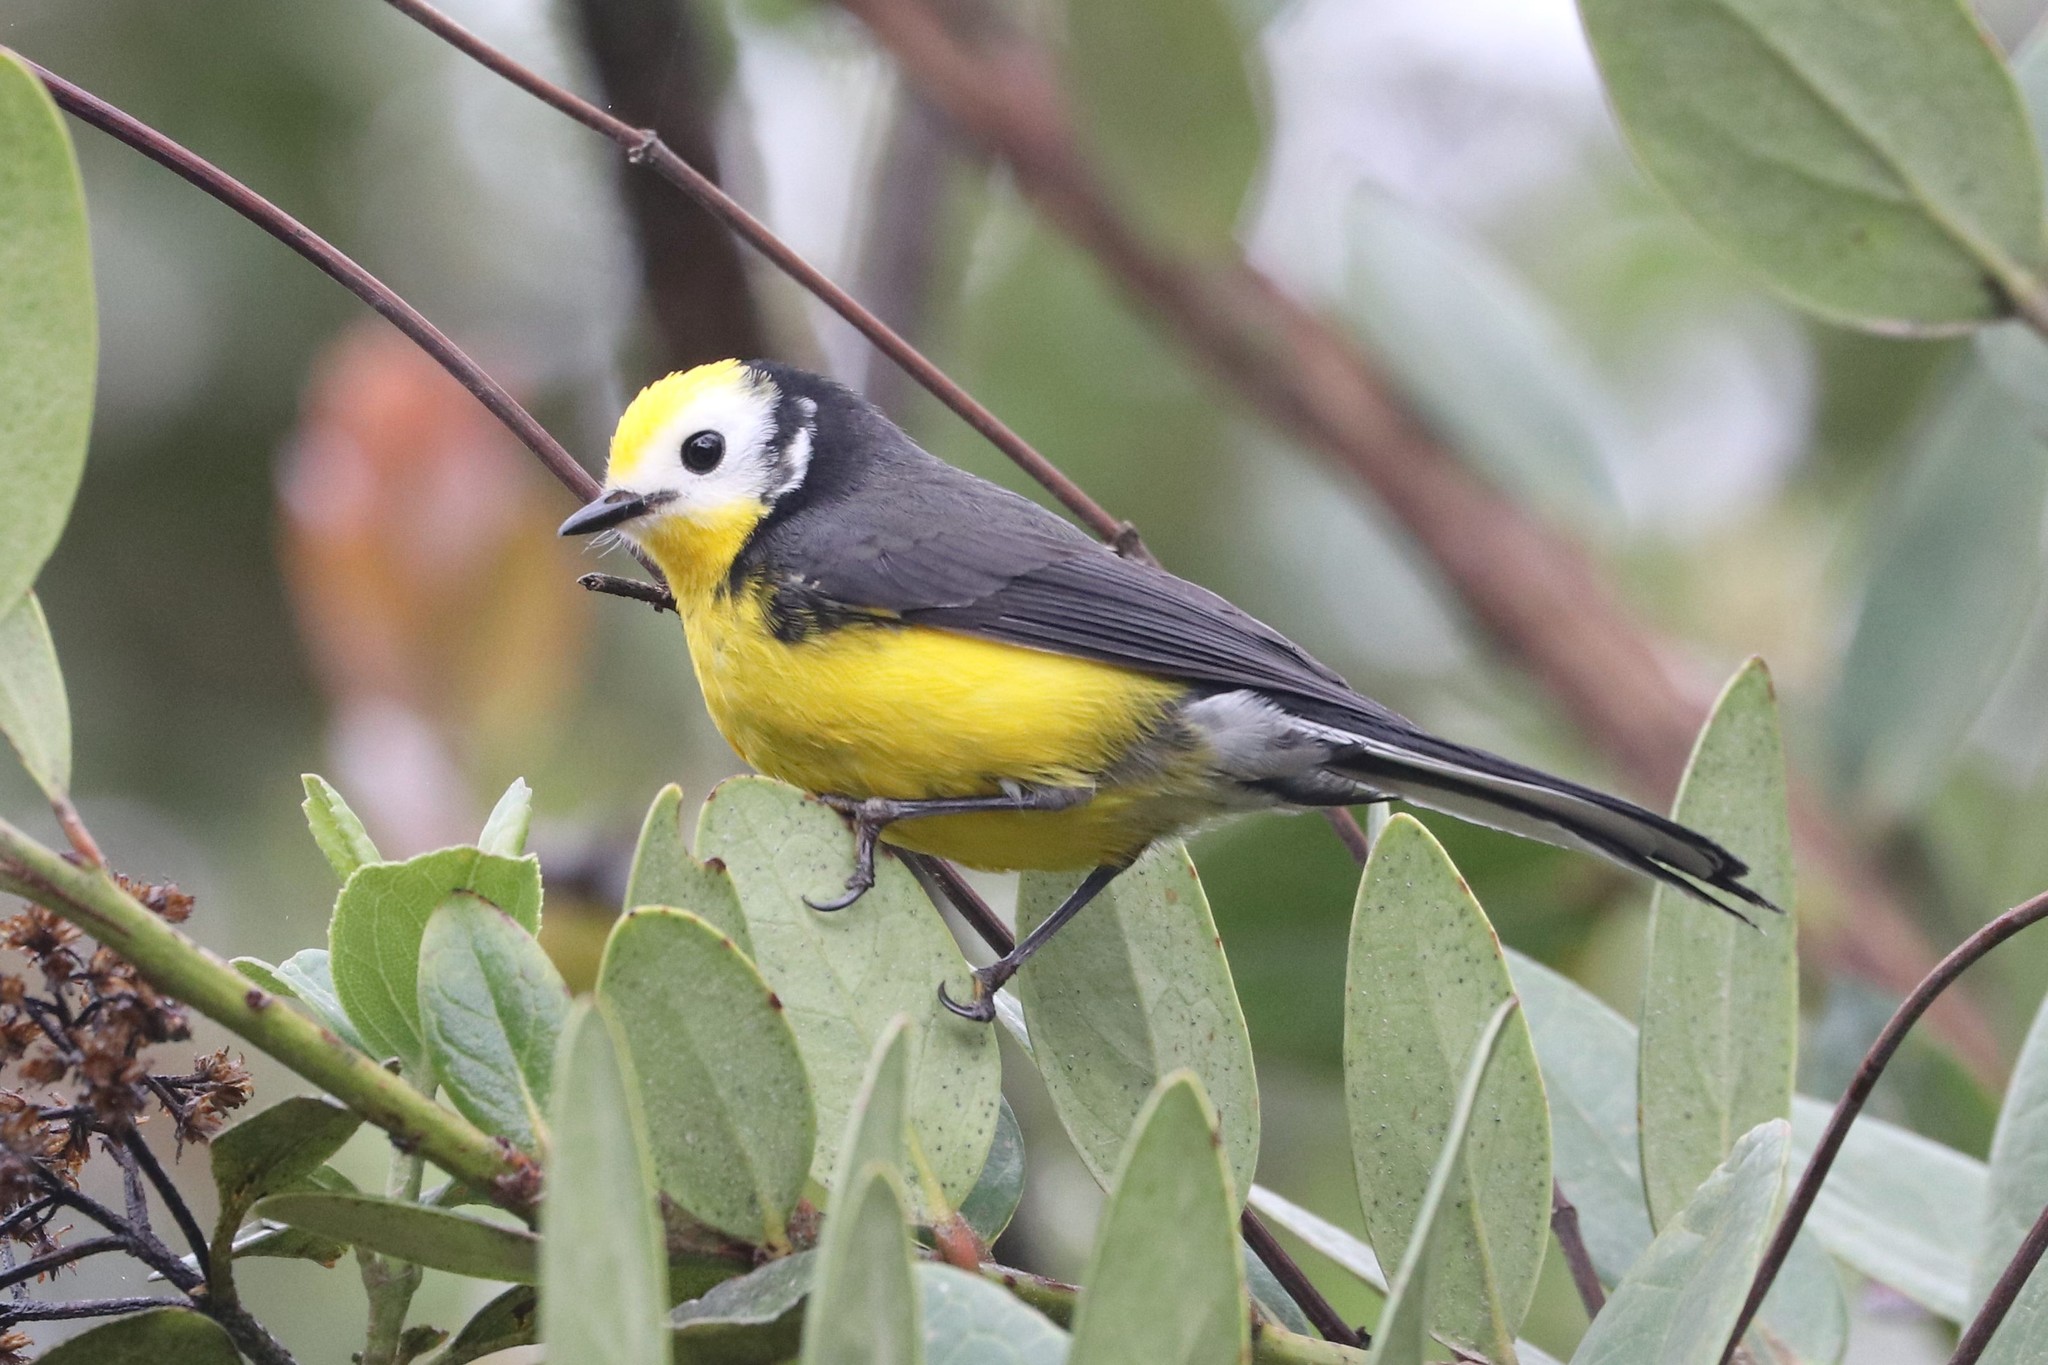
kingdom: Animalia
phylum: Chordata
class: Aves
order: Passeriformes
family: Parulidae
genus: Myioborus
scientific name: Myioborus ornatus
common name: Golden-fronted whitestart
